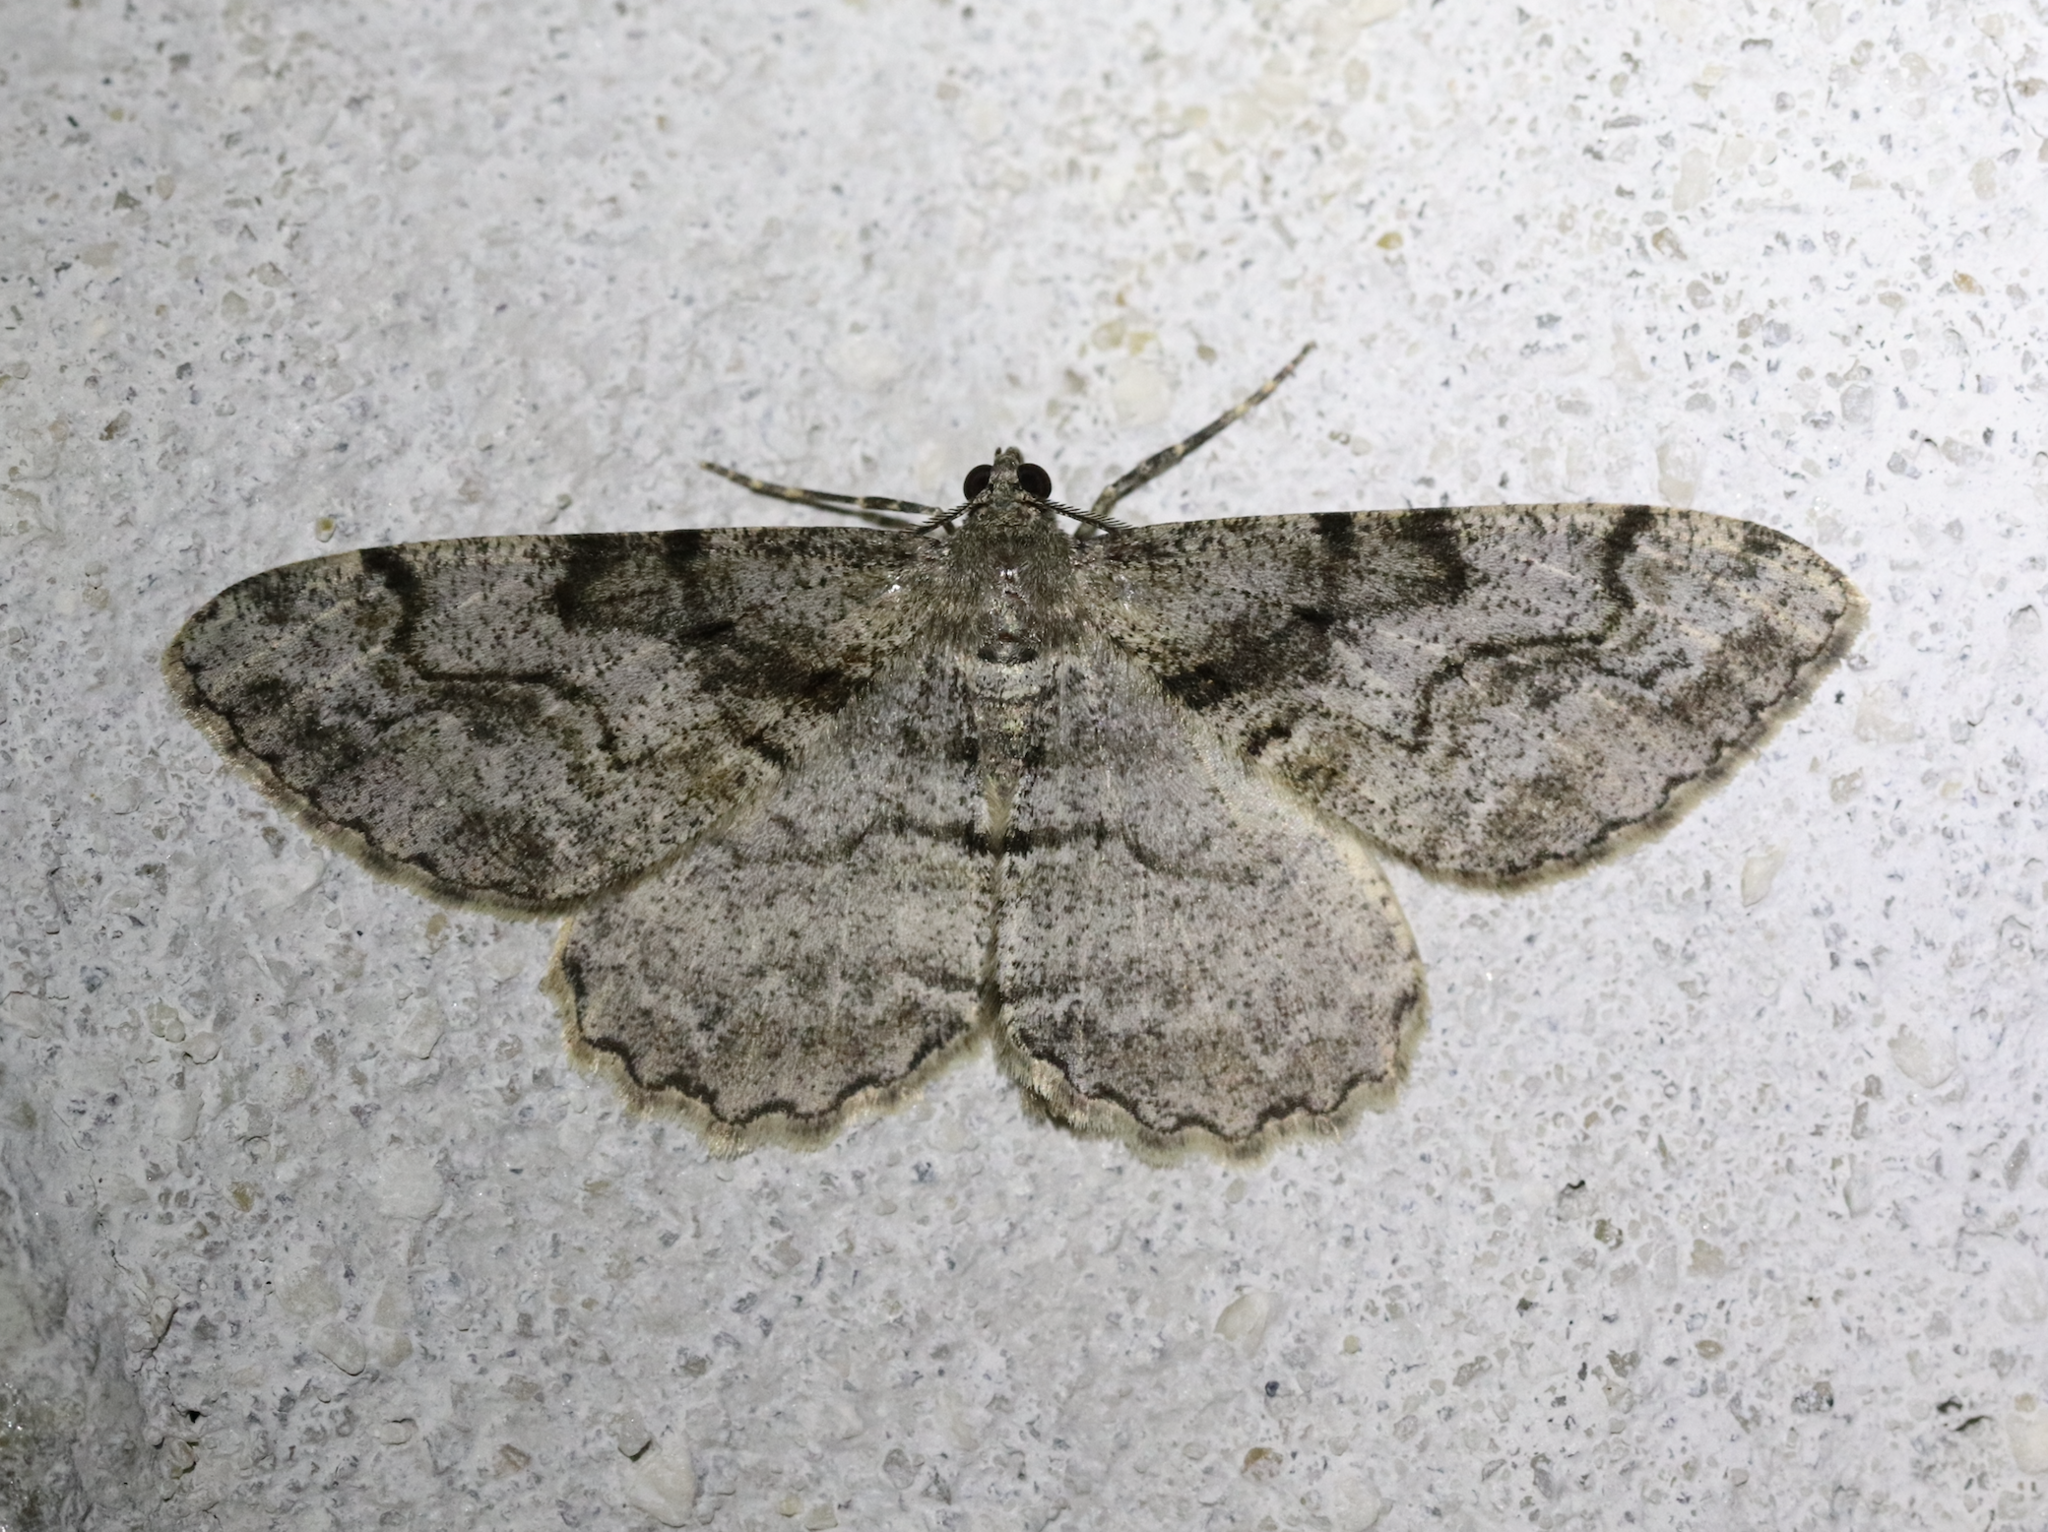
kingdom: Animalia
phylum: Arthropoda
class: Insecta
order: Lepidoptera
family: Geometridae
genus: Alcis
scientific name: Alcis repandata
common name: Mottled beauty
